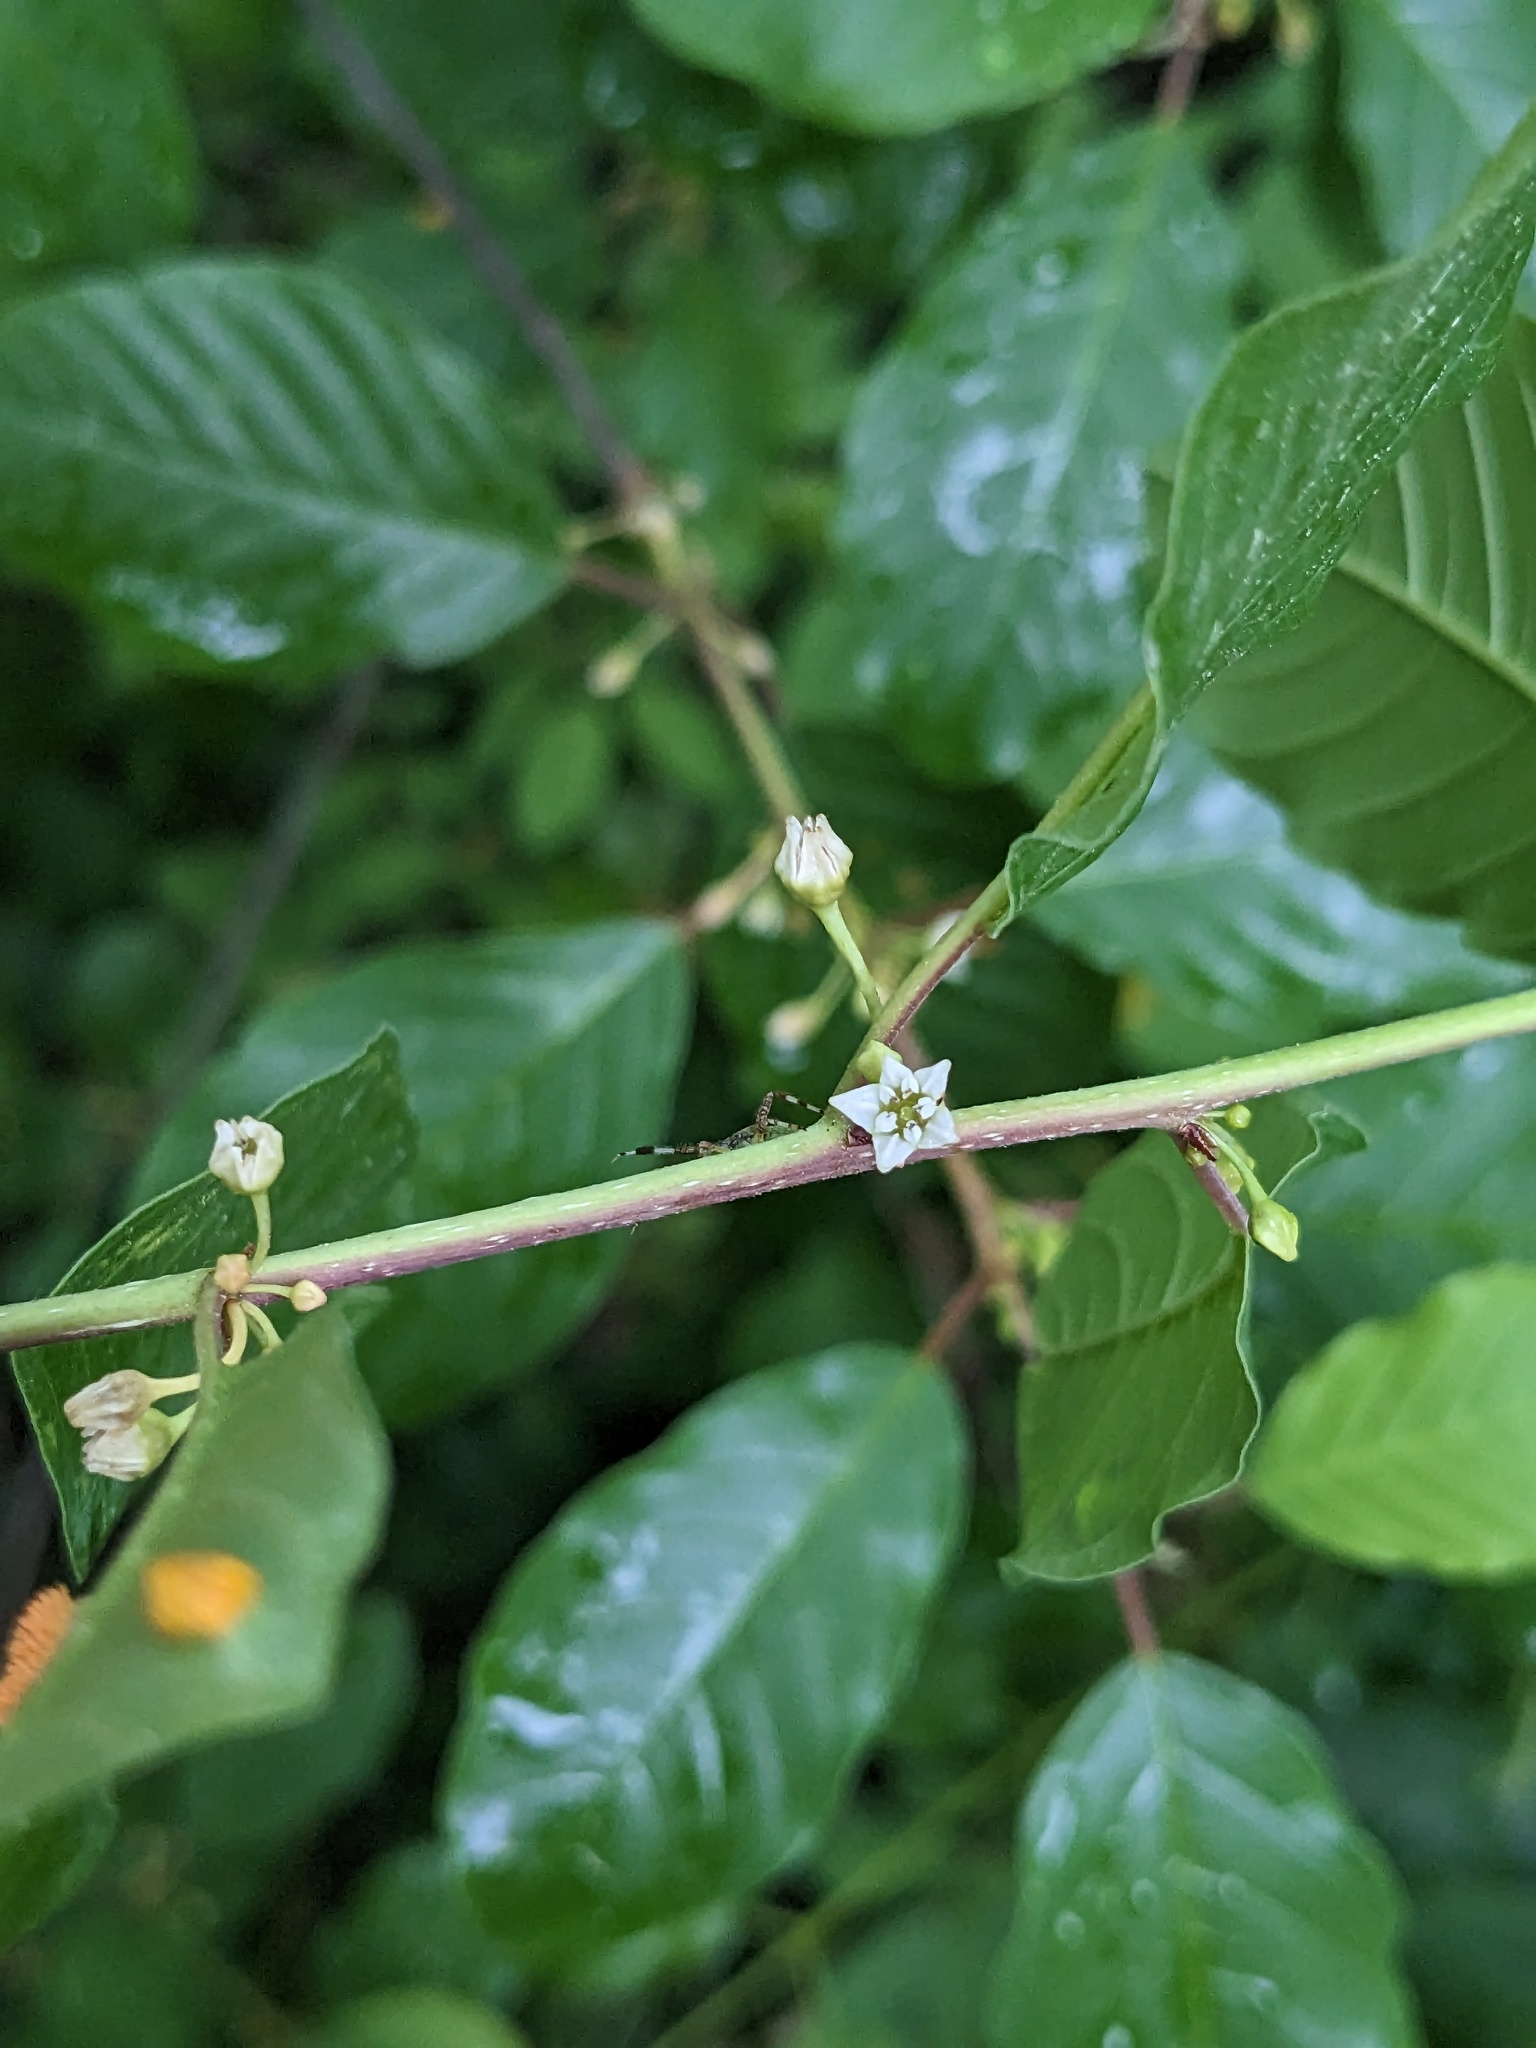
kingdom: Plantae
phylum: Tracheophyta
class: Magnoliopsida
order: Rosales
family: Rhamnaceae
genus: Frangula
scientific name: Frangula alnus
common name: Alder buckthorn
